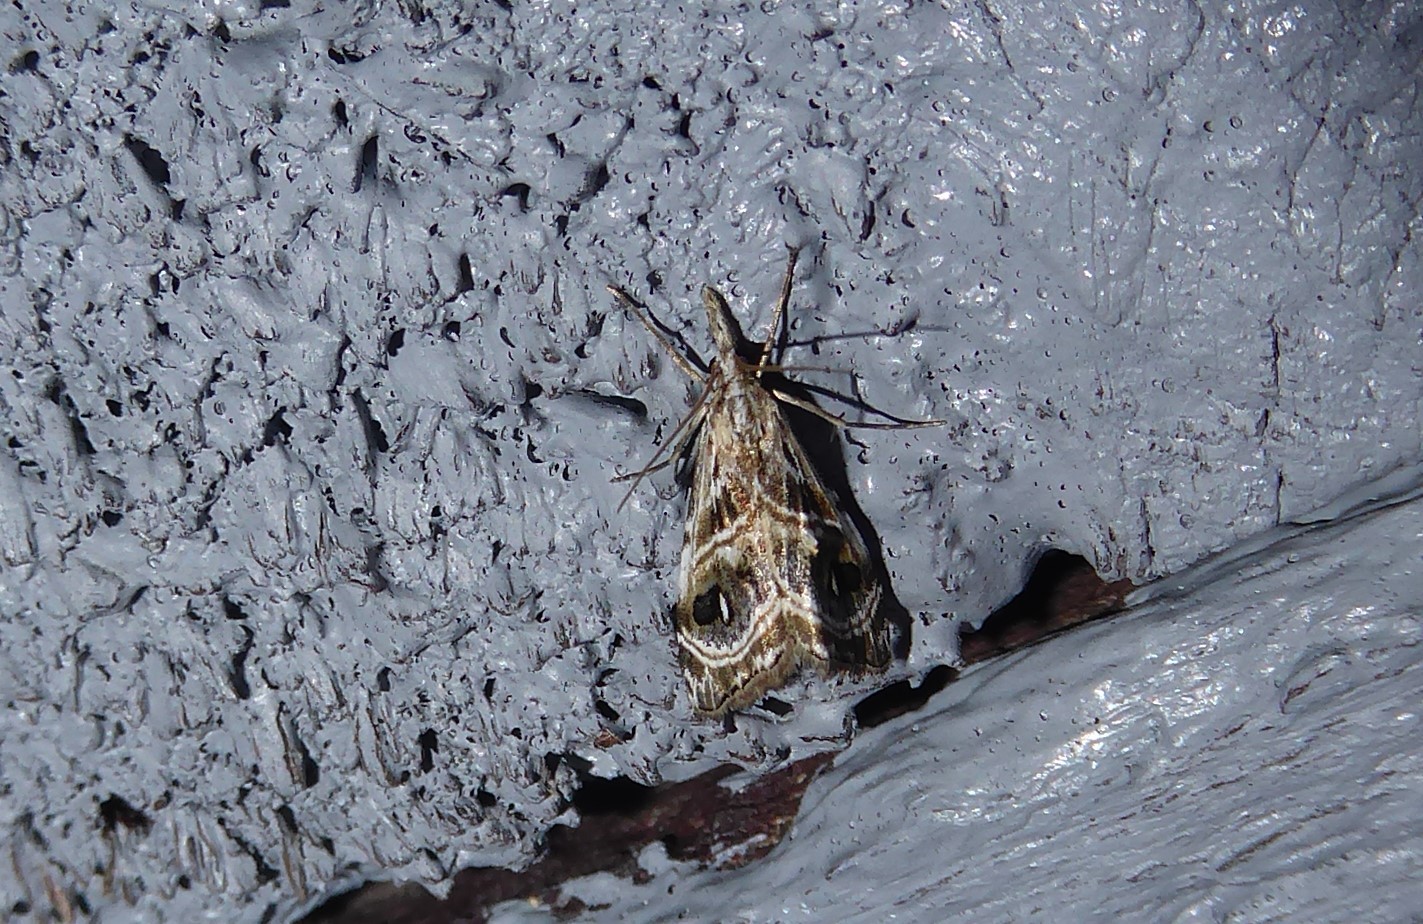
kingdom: Animalia
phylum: Arthropoda
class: Insecta
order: Lepidoptera
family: Crambidae
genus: Gadira
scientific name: Gadira acerella
